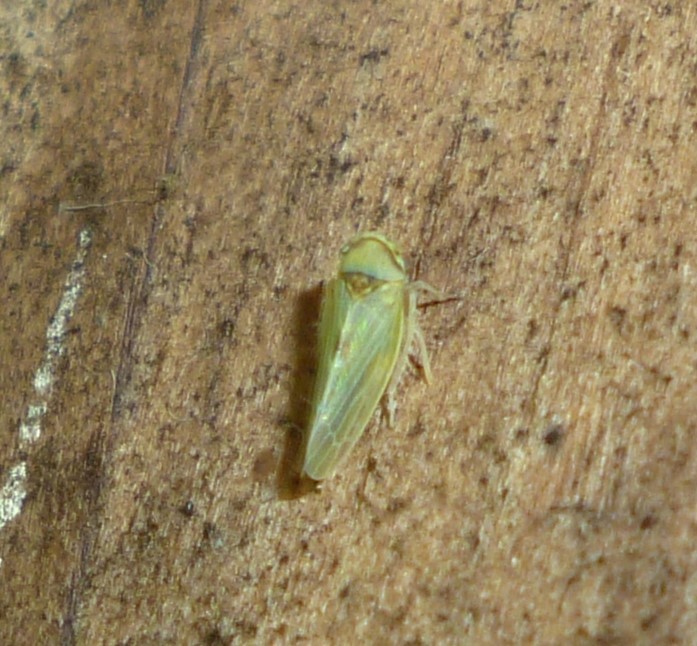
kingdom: Animalia
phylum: Arthropoda
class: Insecta
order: Hemiptera
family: Cicadellidae
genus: Agalliopsis
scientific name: Agalliopsis ancistra
